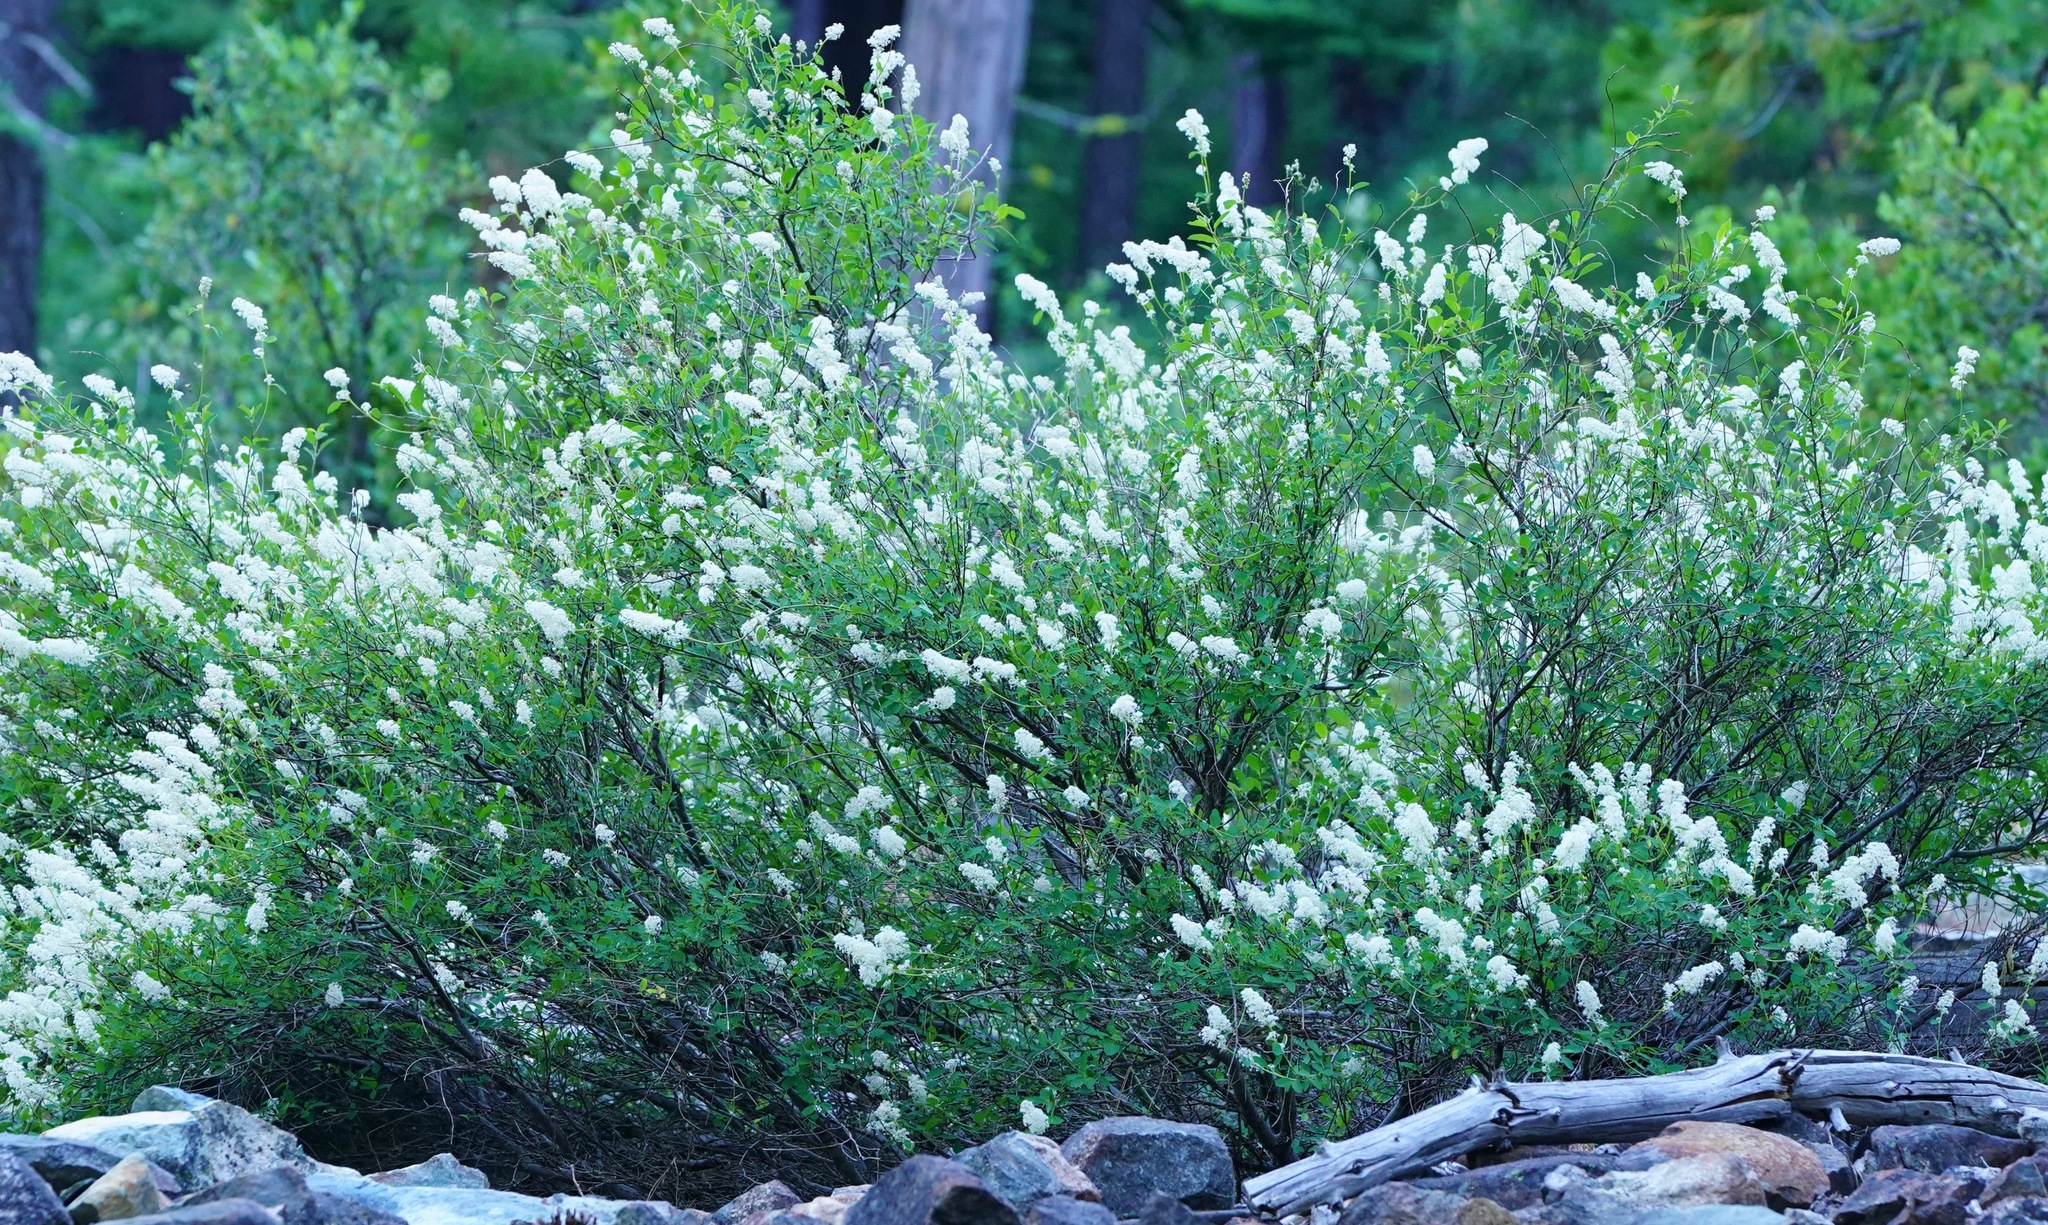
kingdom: Plantae
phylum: Tracheophyta
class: Magnoliopsida
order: Rosales
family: Rhamnaceae
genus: Ceanothus
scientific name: Ceanothus integerrimus
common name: Deerbrush ceanothus
